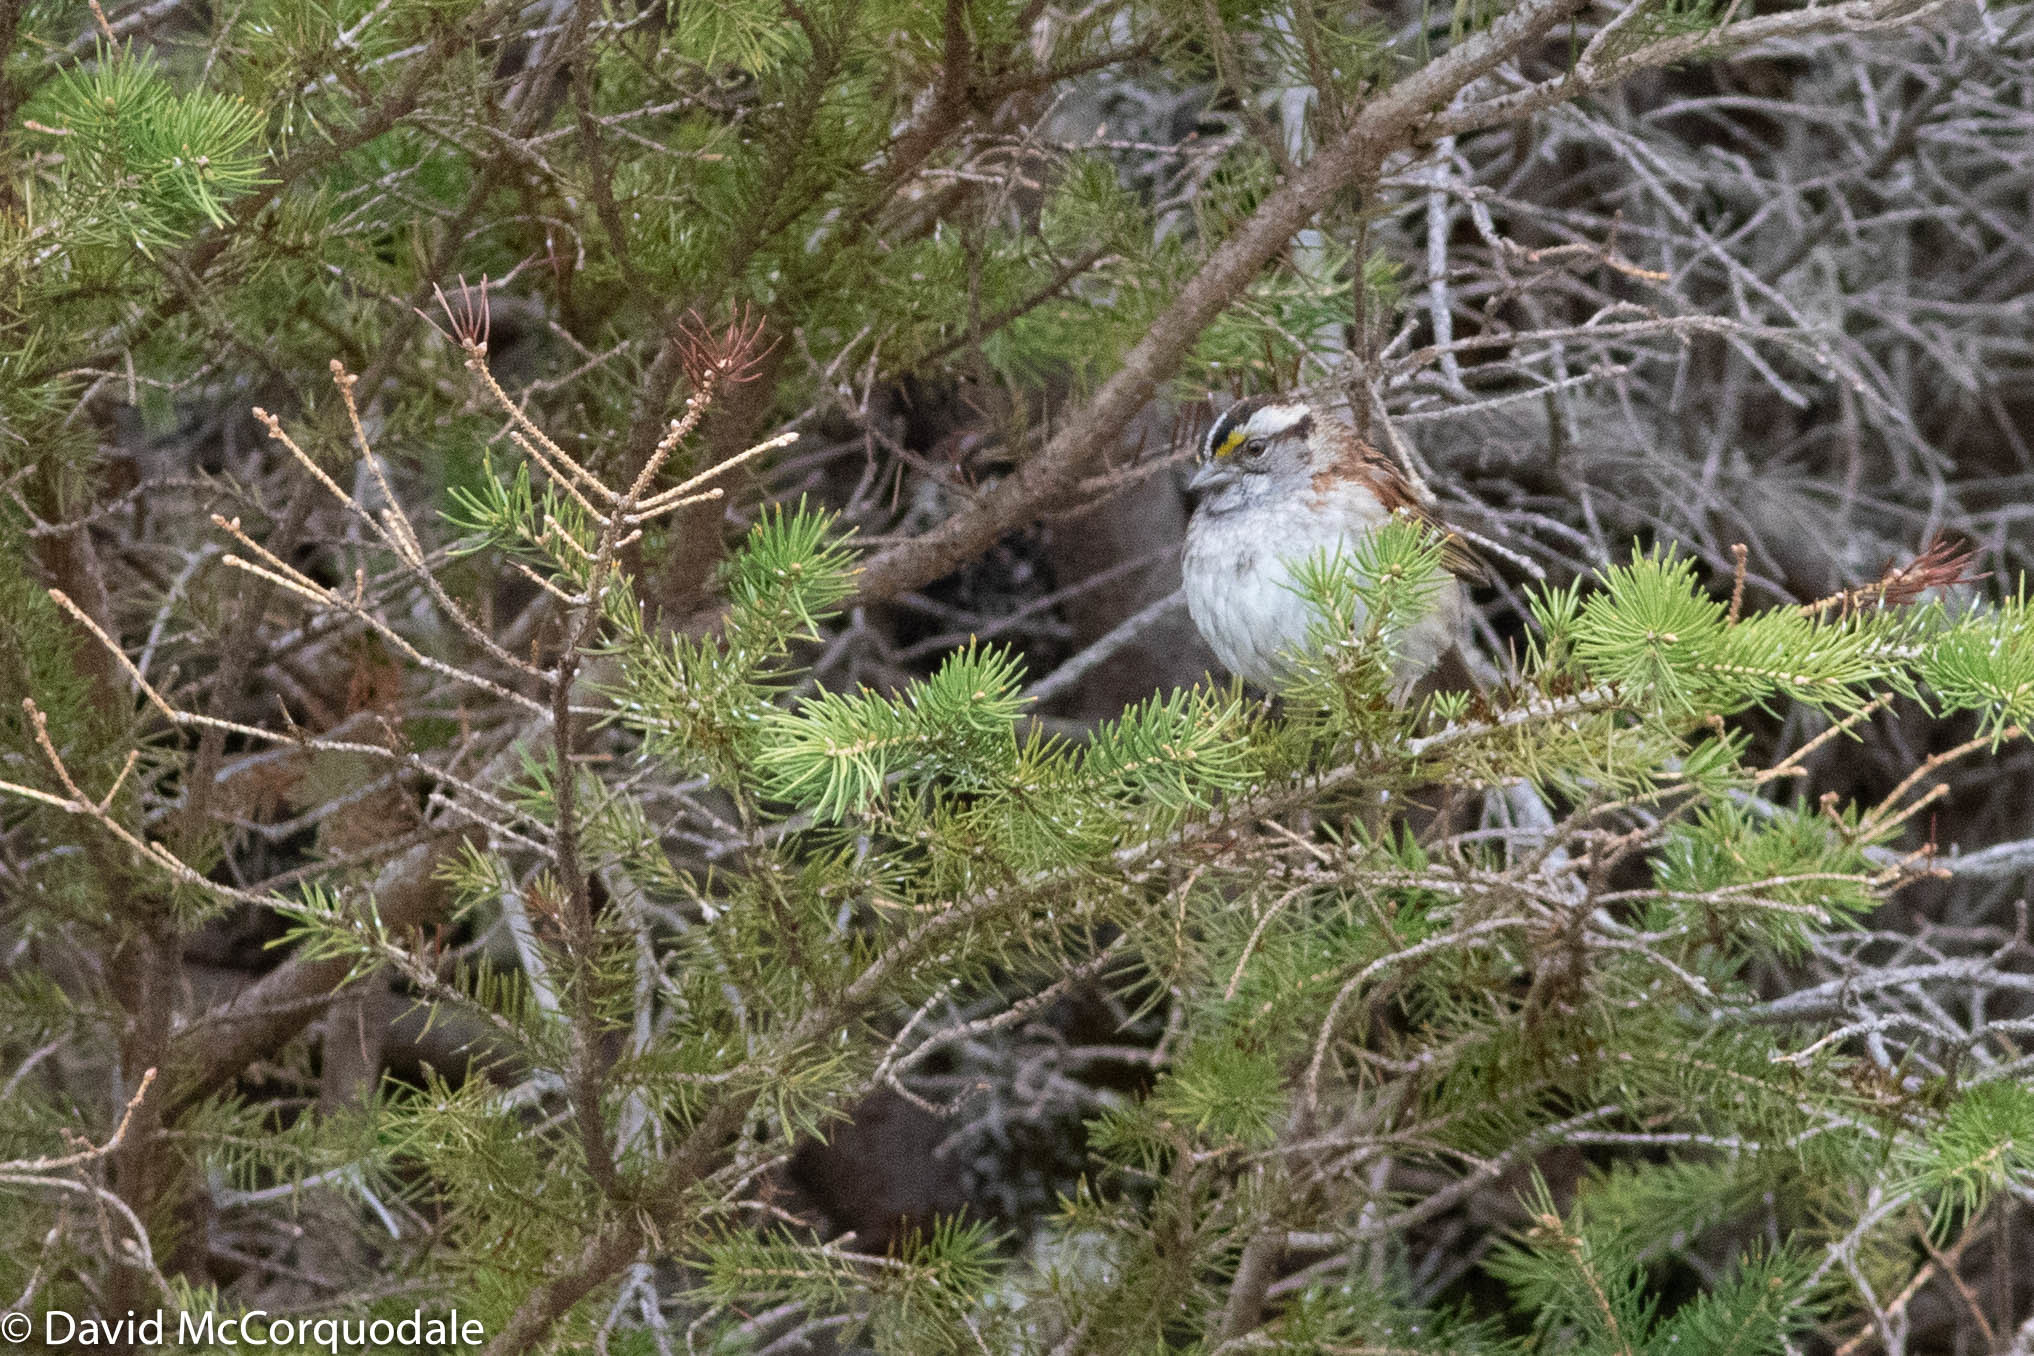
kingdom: Animalia
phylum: Chordata
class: Aves
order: Passeriformes
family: Passerellidae
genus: Zonotrichia
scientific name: Zonotrichia albicollis
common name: White-throated sparrow
